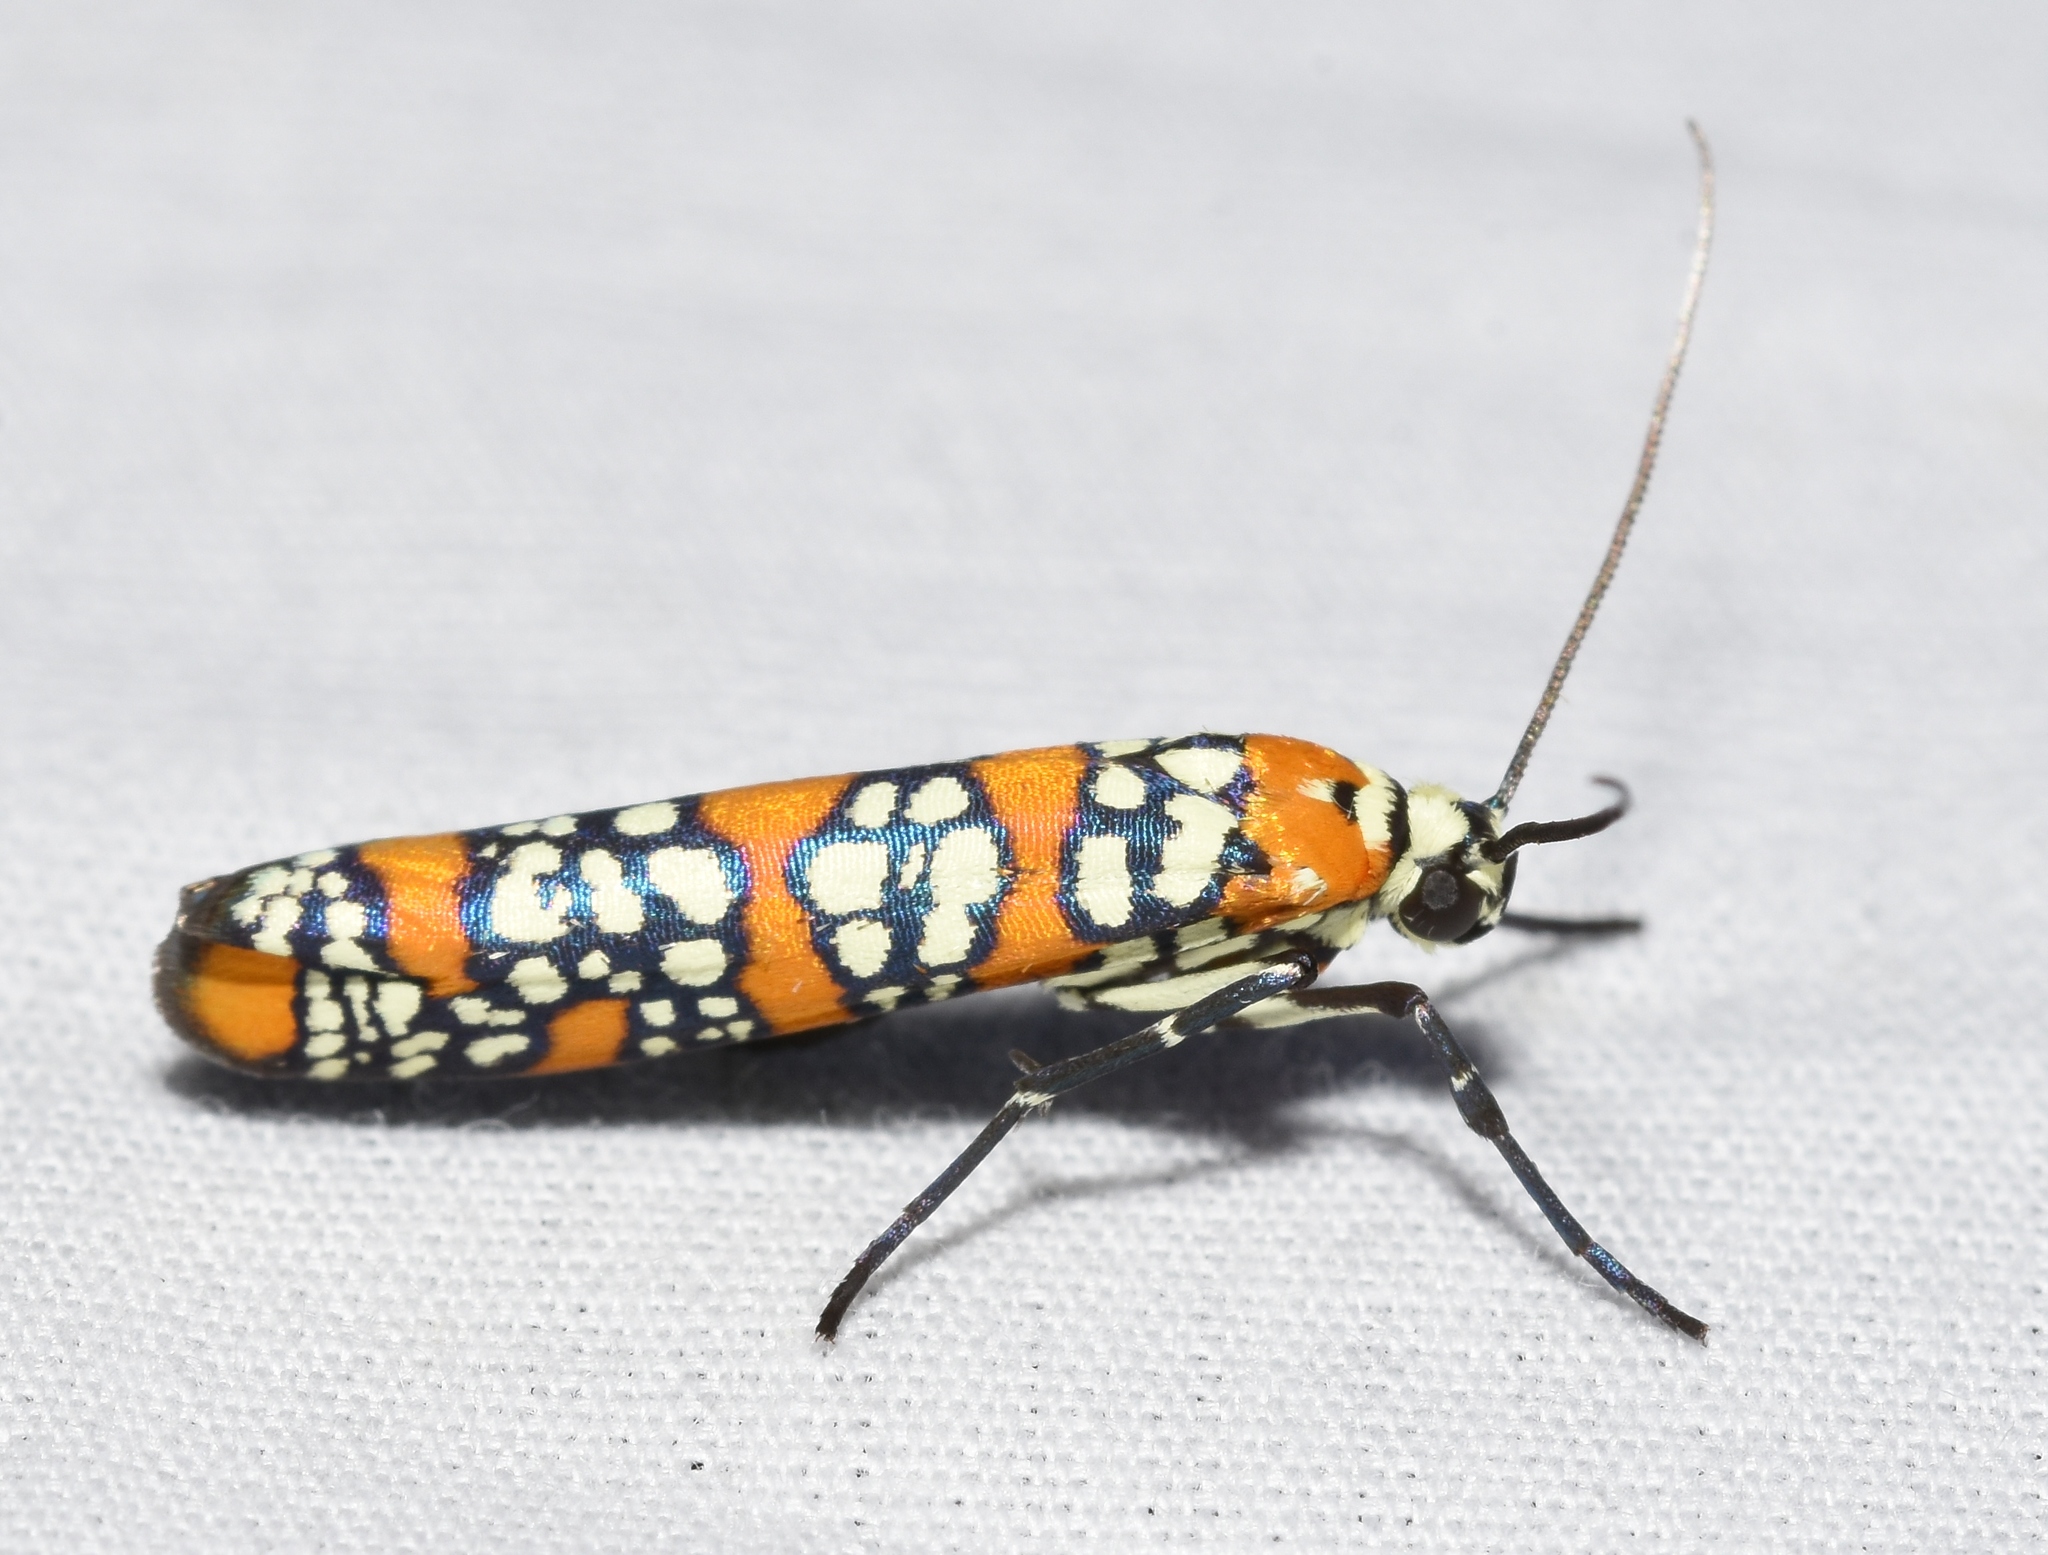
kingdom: Animalia
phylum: Arthropoda
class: Insecta
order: Lepidoptera
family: Attevidae
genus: Atteva
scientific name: Atteva punctella
